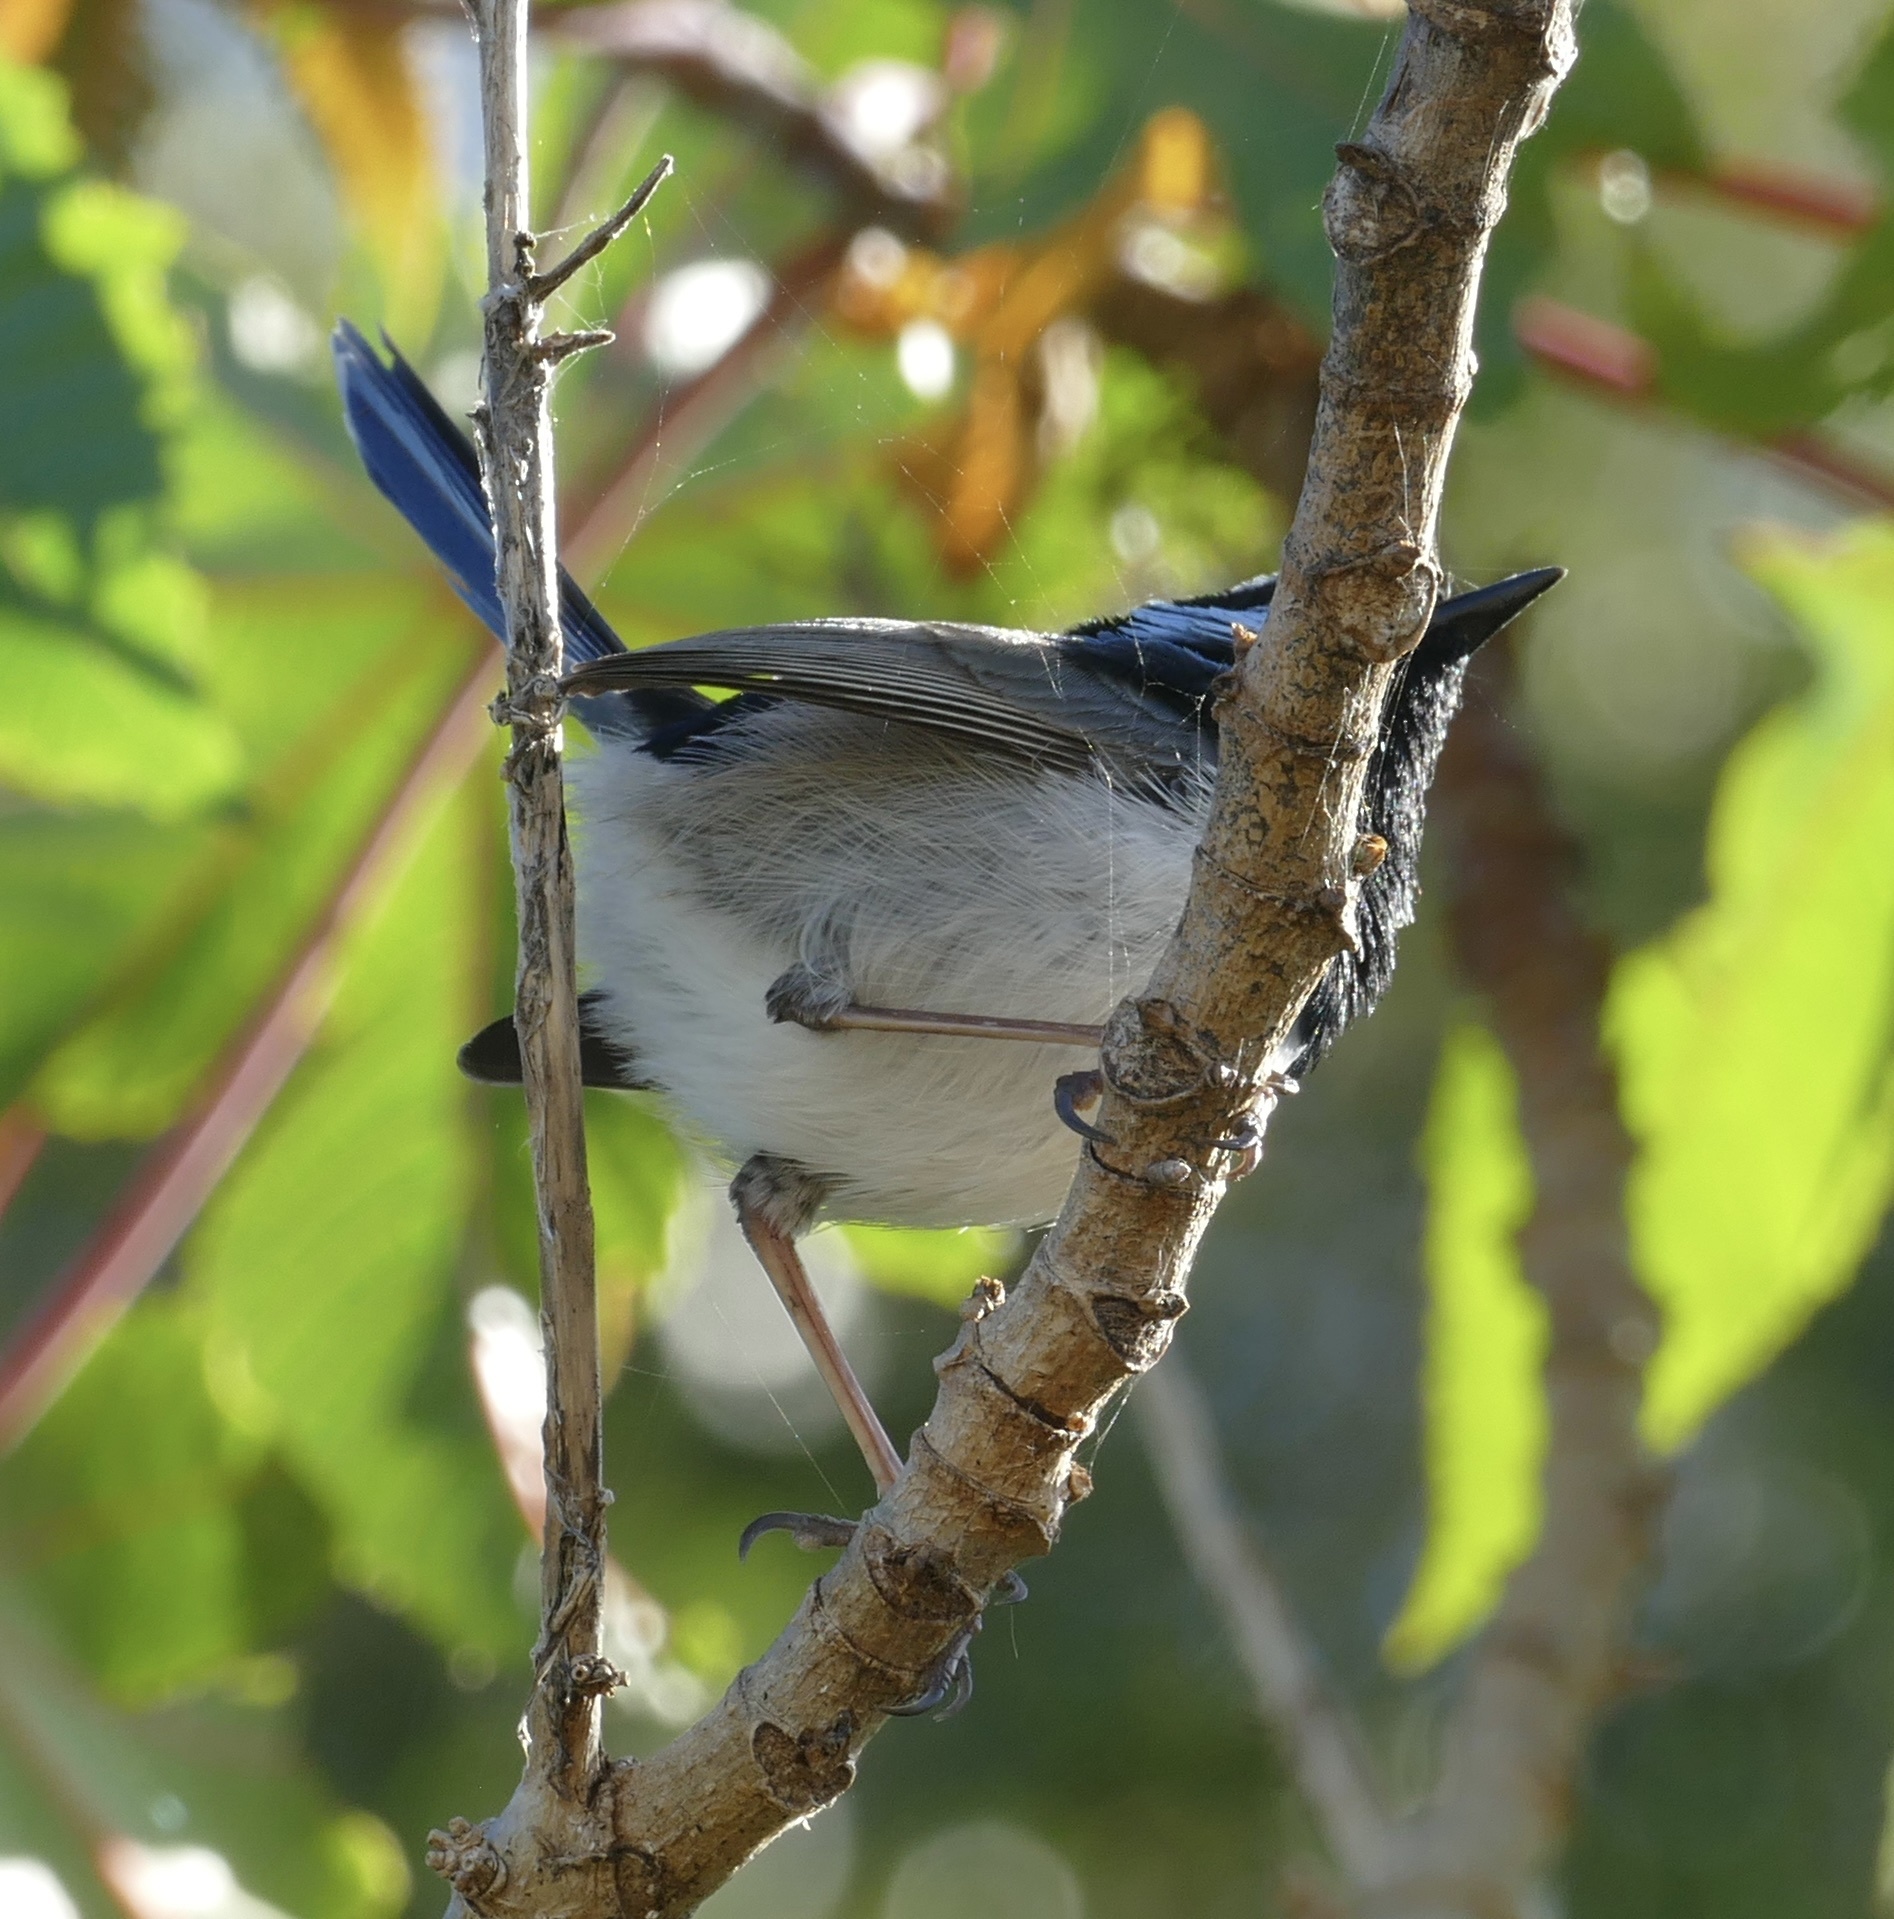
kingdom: Animalia
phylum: Chordata
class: Aves
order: Passeriformes
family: Maluridae
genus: Malurus
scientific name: Malurus cyaneus
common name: Superb fairywren
